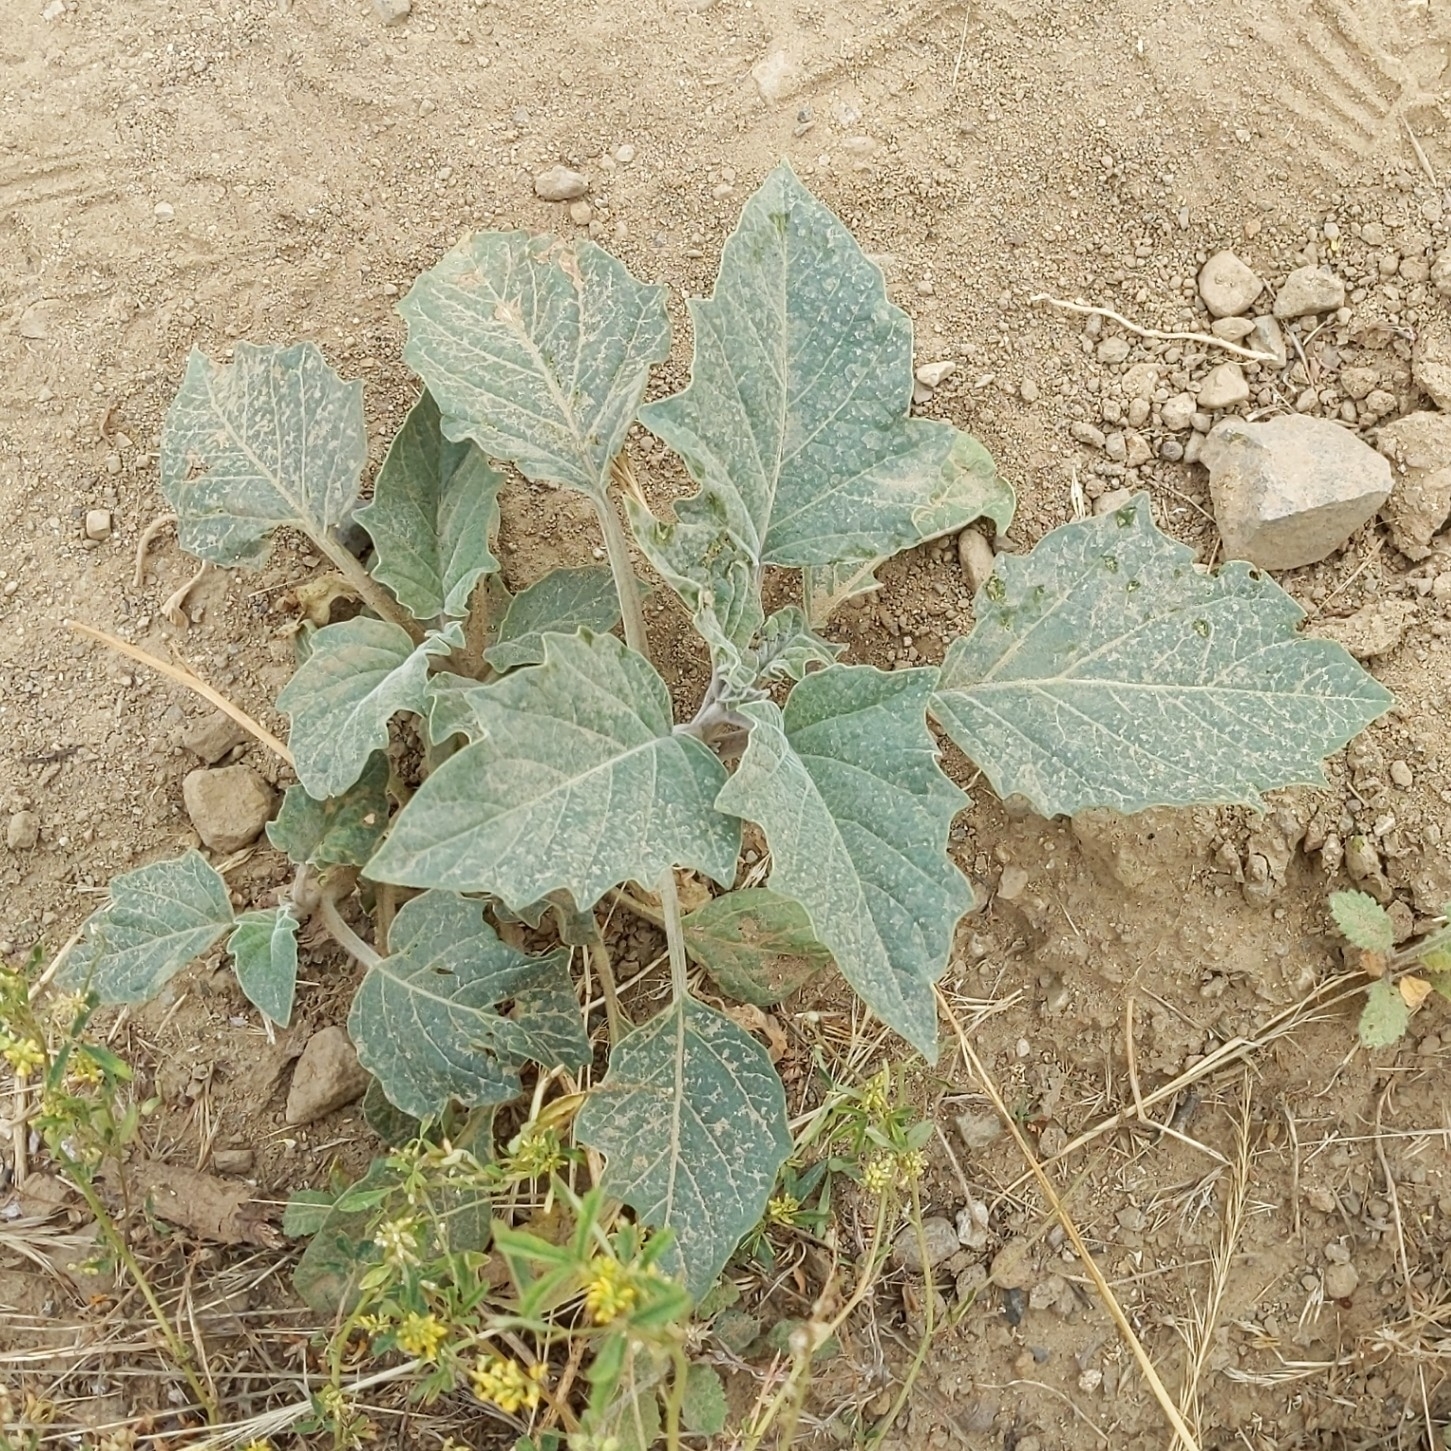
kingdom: Plantae
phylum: Tracheophyta
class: Magnoliopsida
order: Solanales
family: Solanaceae
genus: Datura
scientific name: Datura wrightii
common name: Sacred thorn-apple
